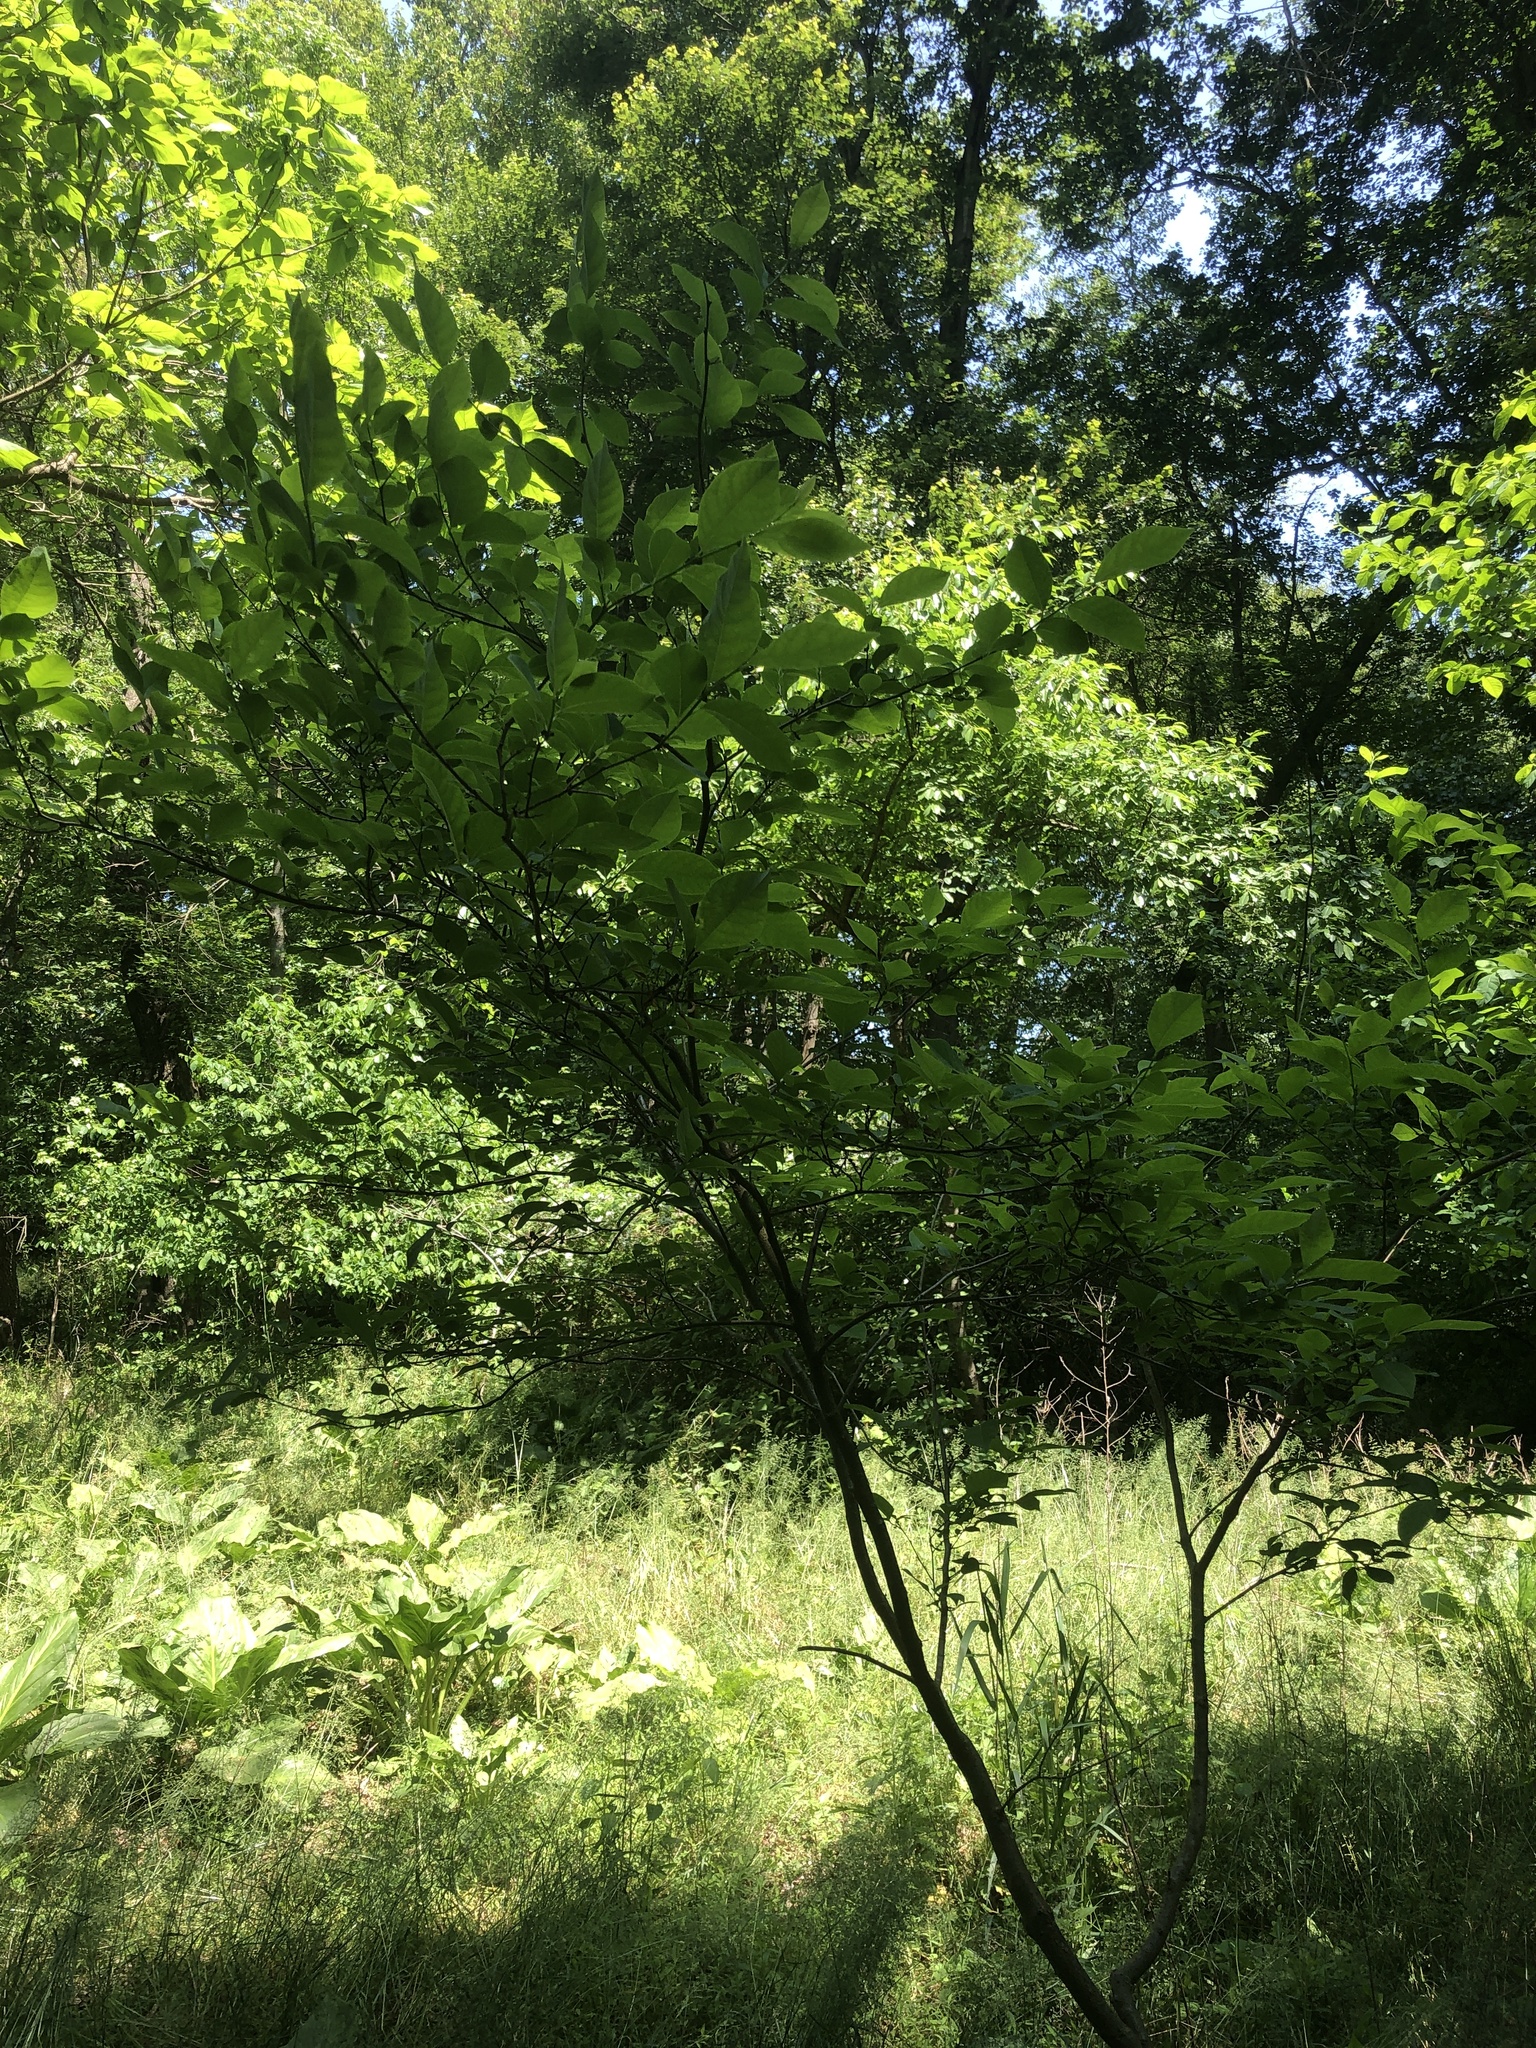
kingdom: Plantae
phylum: Tracheophyta
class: Magnoliopsida
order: Laurales
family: Lauraceae
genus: Lindera
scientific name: Lindera benzoin
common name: Spicebush
